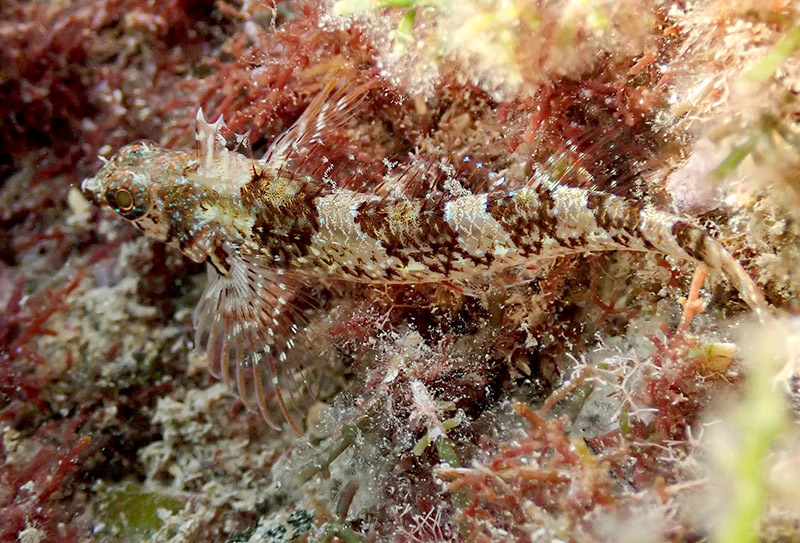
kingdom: Animalia
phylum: Chordata
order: Perciformes
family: Tripterygiidae
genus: Tripterygion
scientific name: Tripterygion tripteronotum
